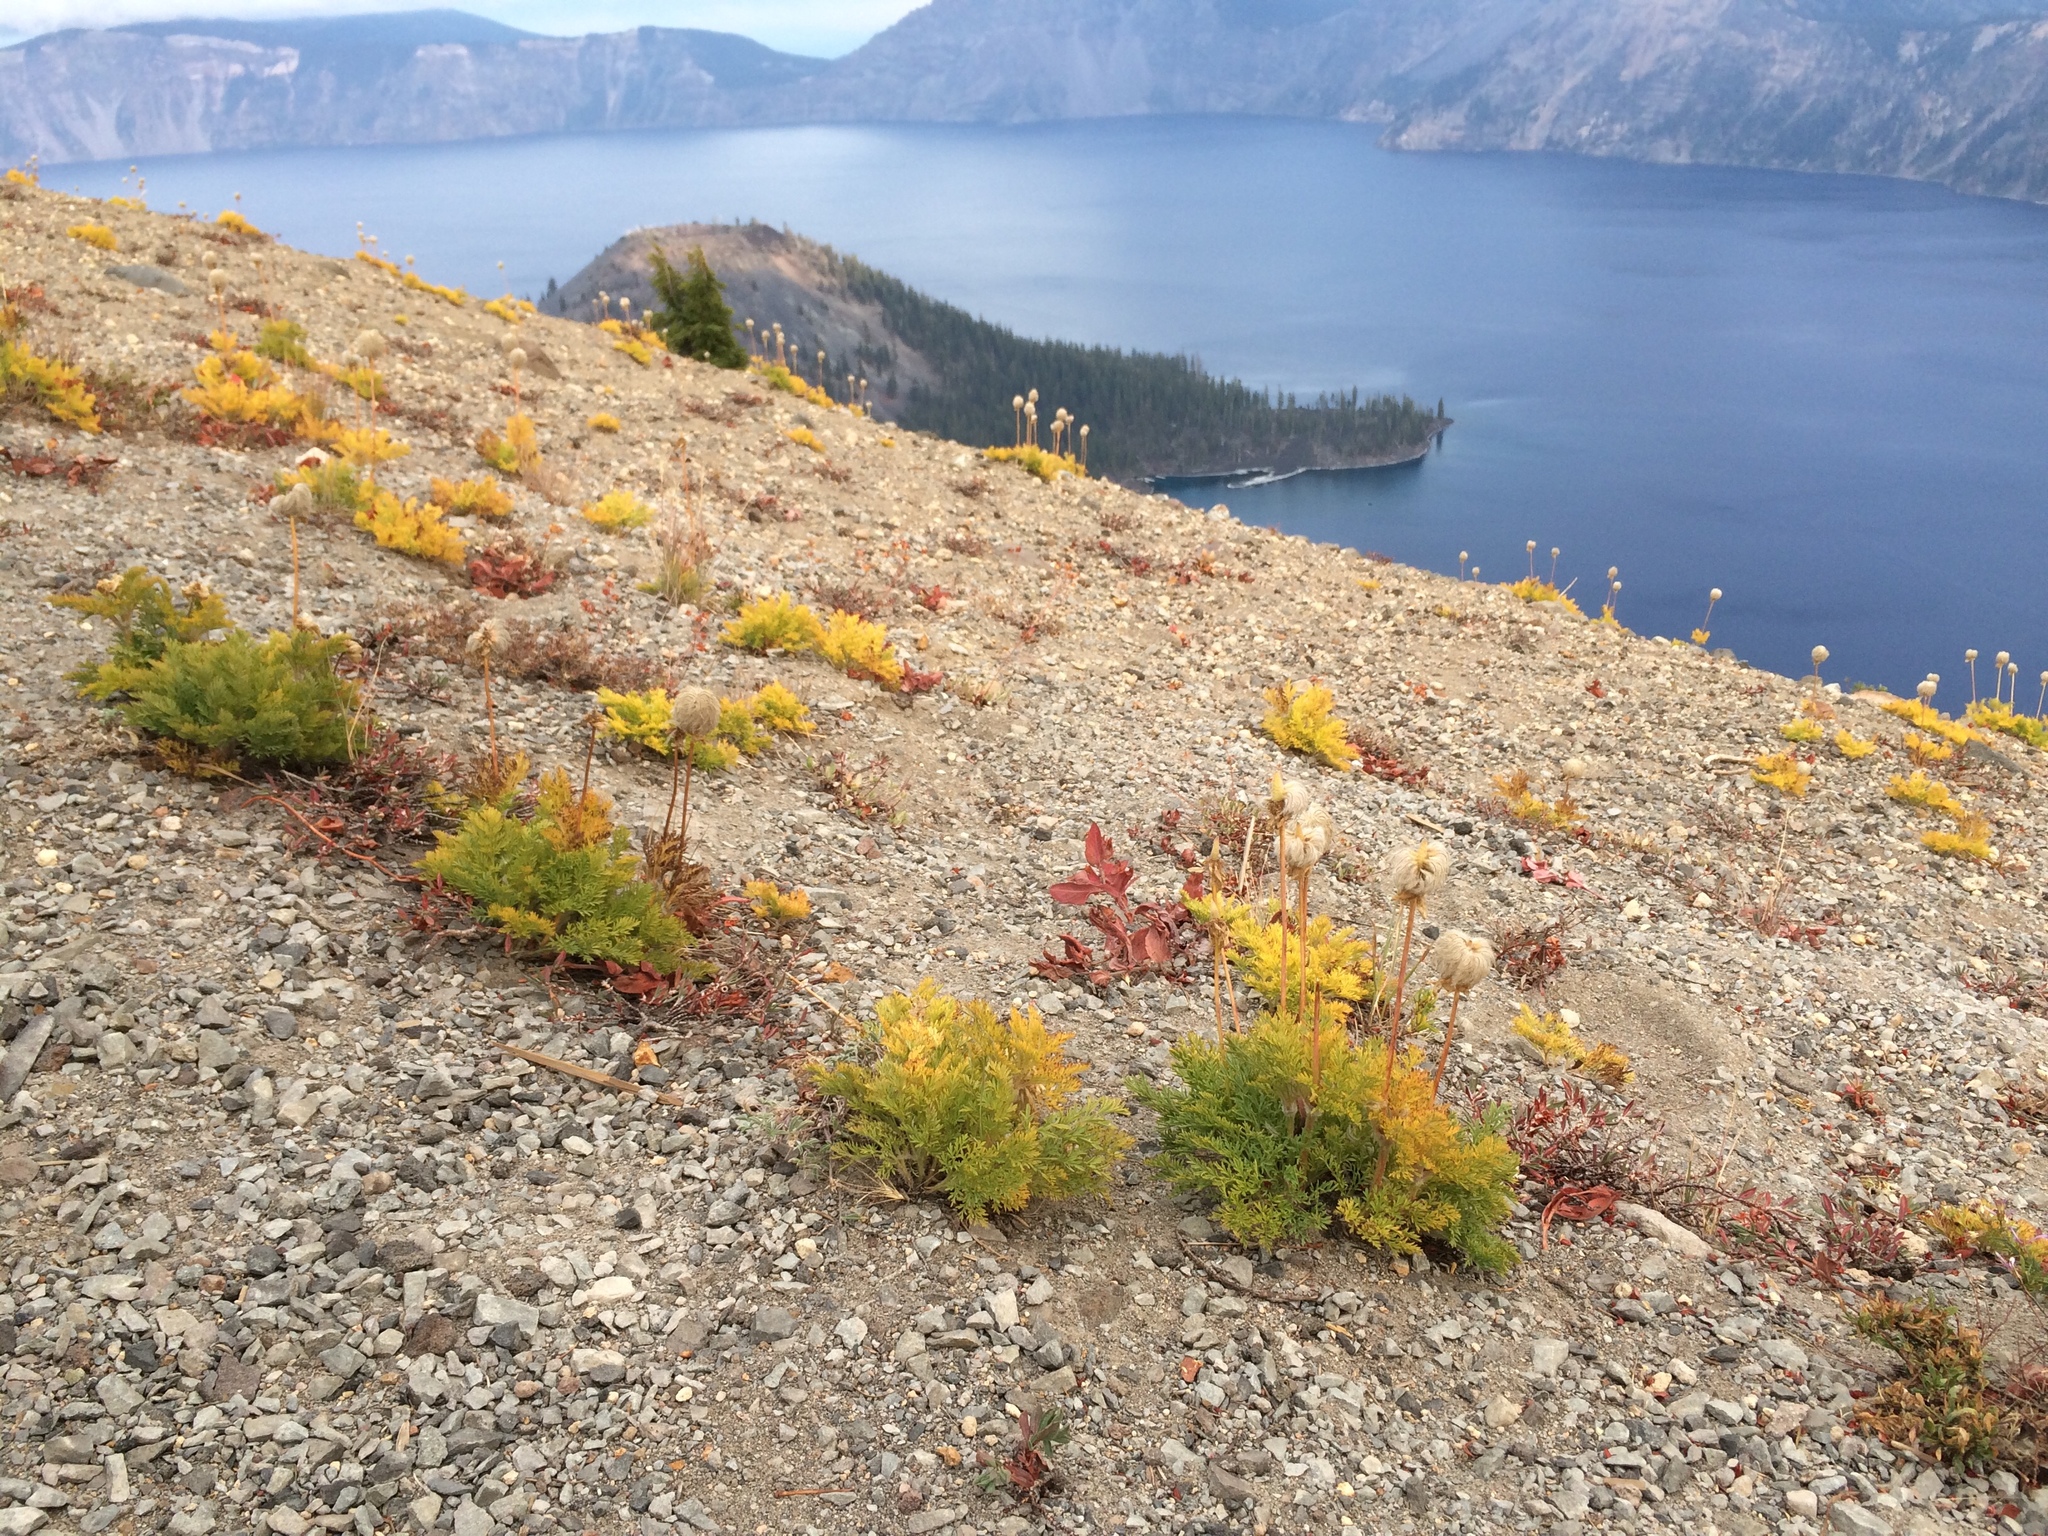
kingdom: Plantae
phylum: Tracheophyta
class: Magnoliopsida
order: Ranunculales
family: Ranunculaceae
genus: Pulsatilla
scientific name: Pulsatilla occidentalis
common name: Mountain pasqueflower
